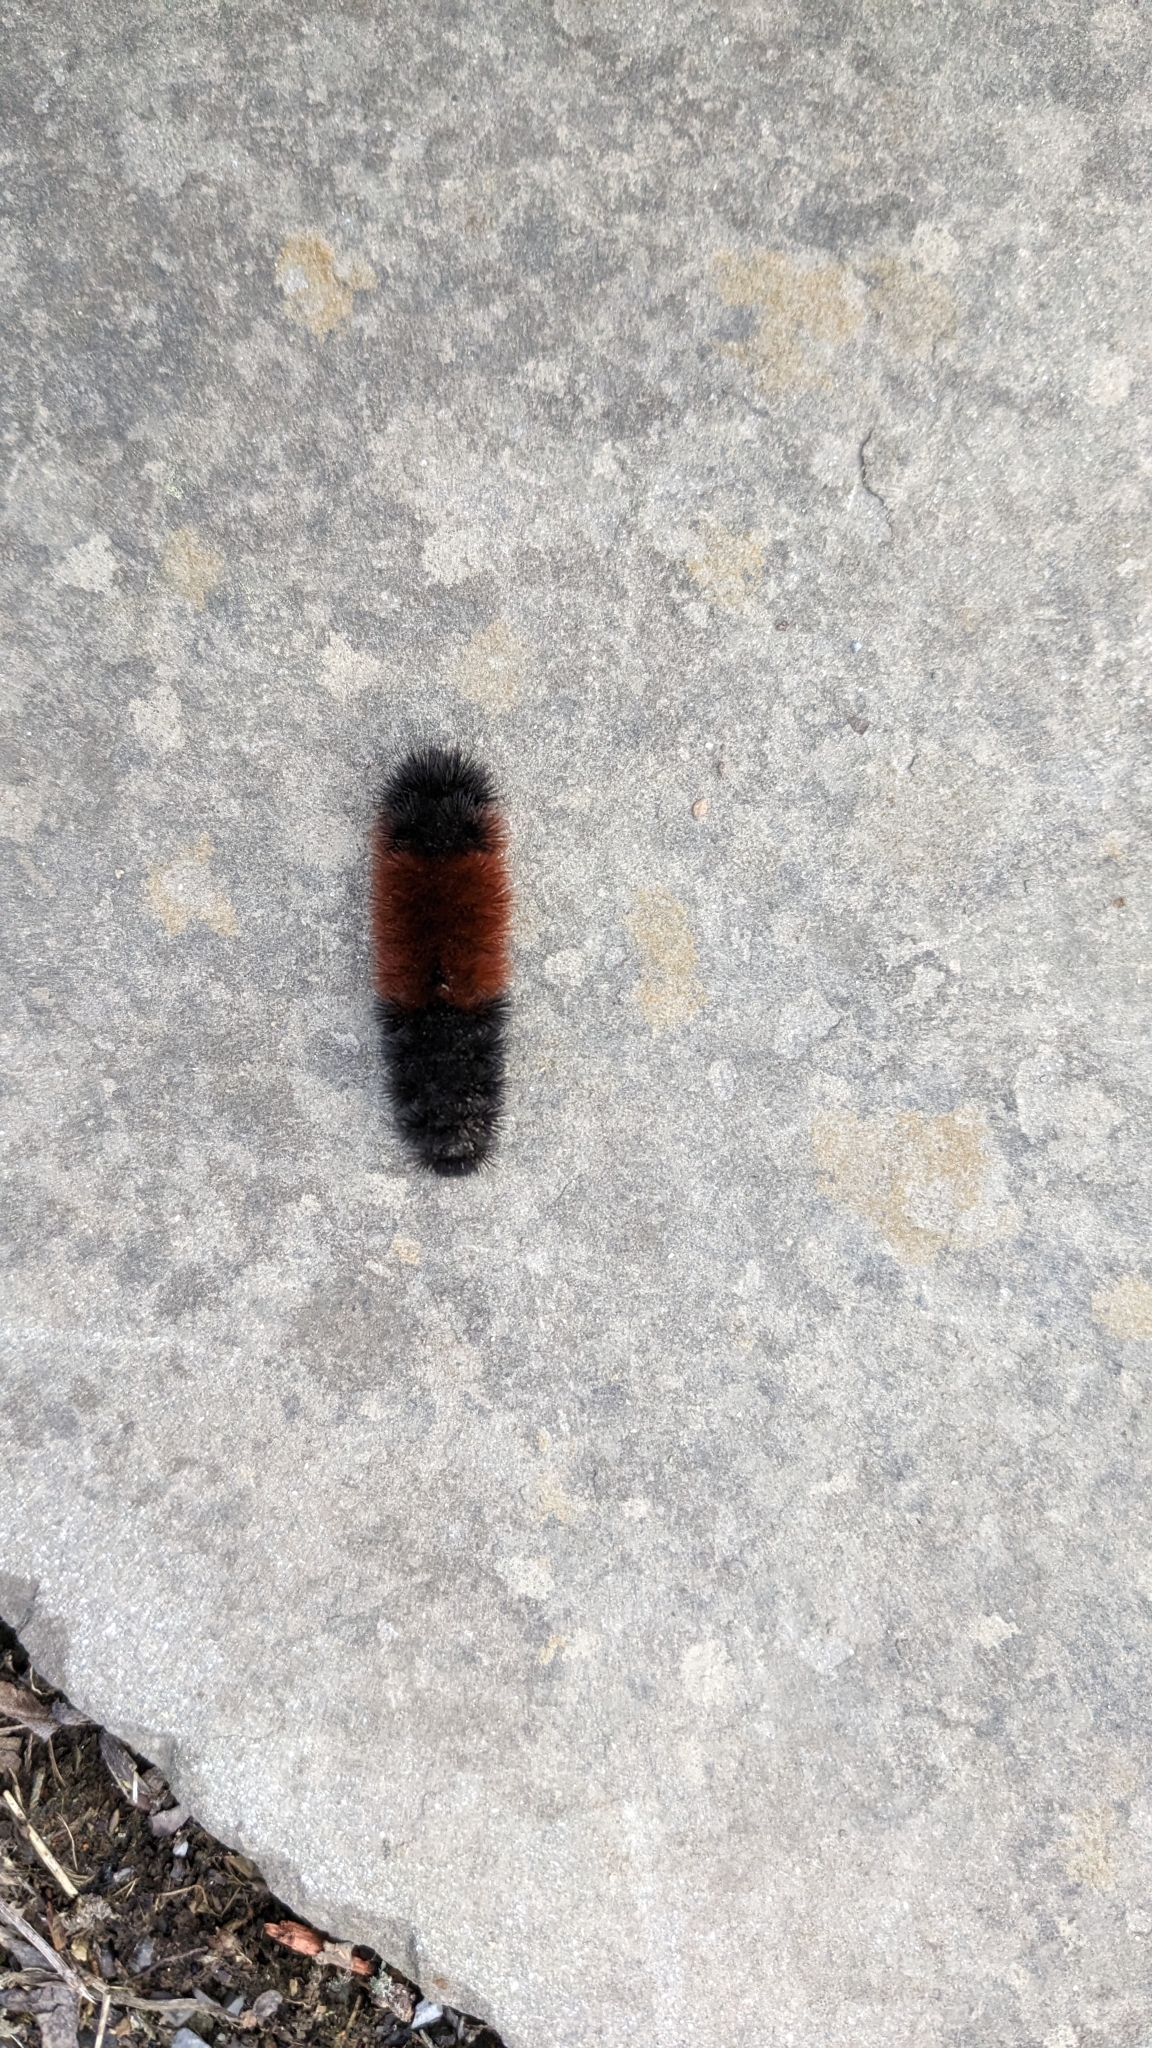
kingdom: Animalia
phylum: Arthropoda
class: Insecta
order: Lepidoptera
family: Erebidae
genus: Pyrrharctia
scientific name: Pyrrharctia isabella
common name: Isabella tiger moth
